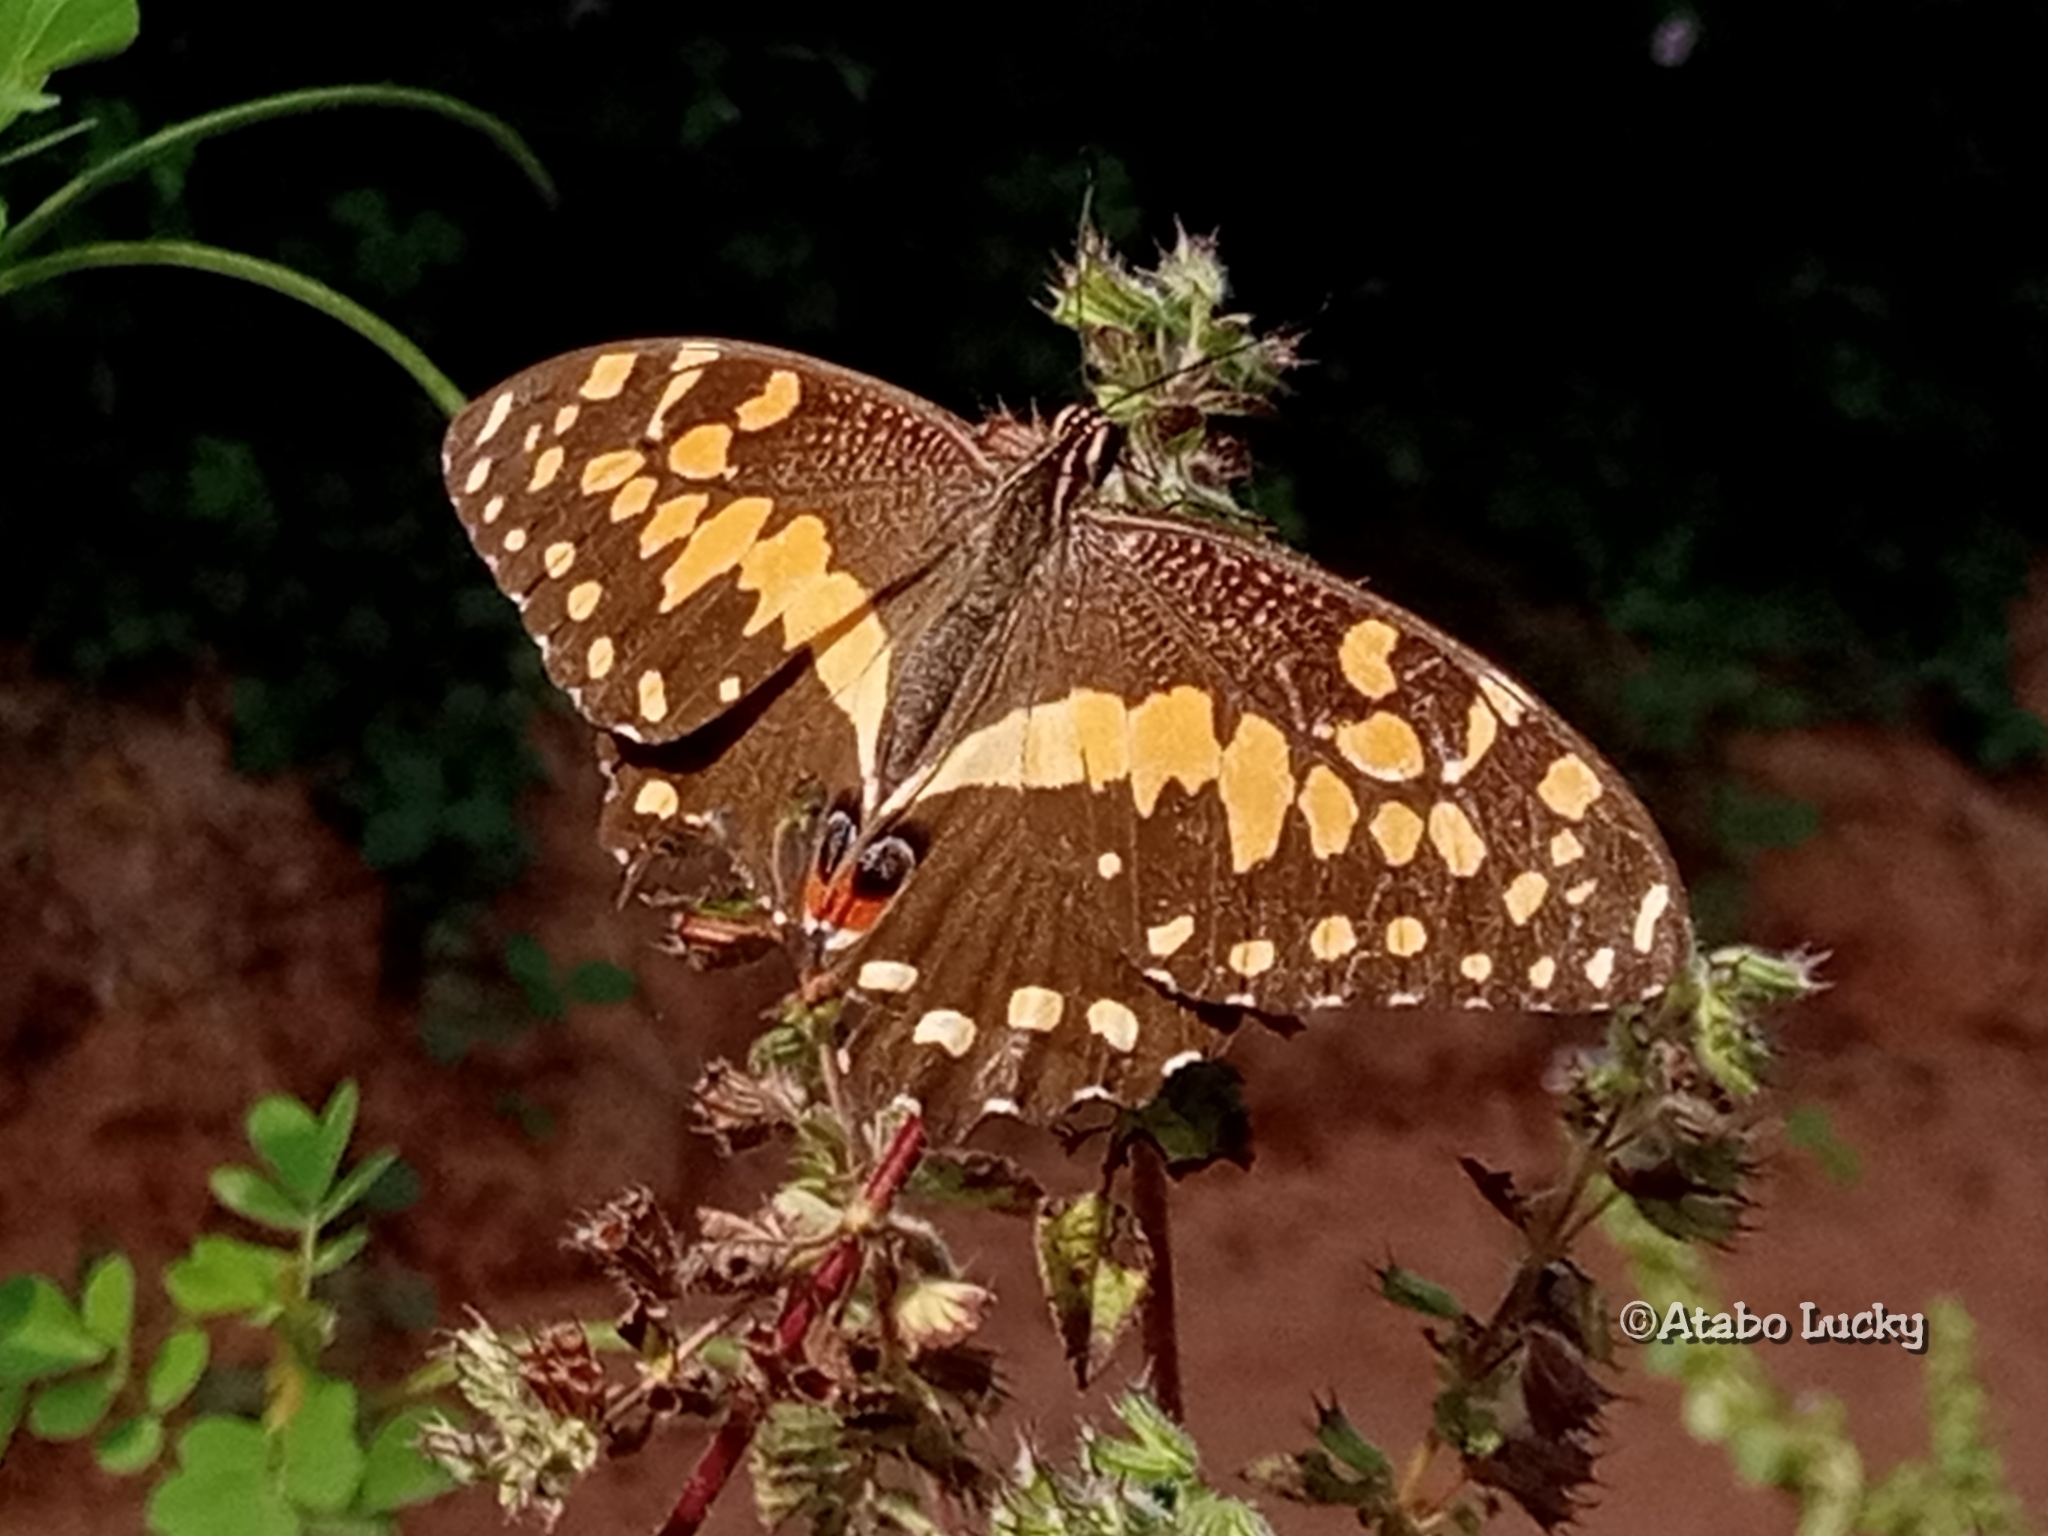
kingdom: Animalia
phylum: Arthropoda
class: Insecta
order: Lepidoptera
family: Papilionidae
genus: Papilio
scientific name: Papilio demodocus
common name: Christmas butterfly
